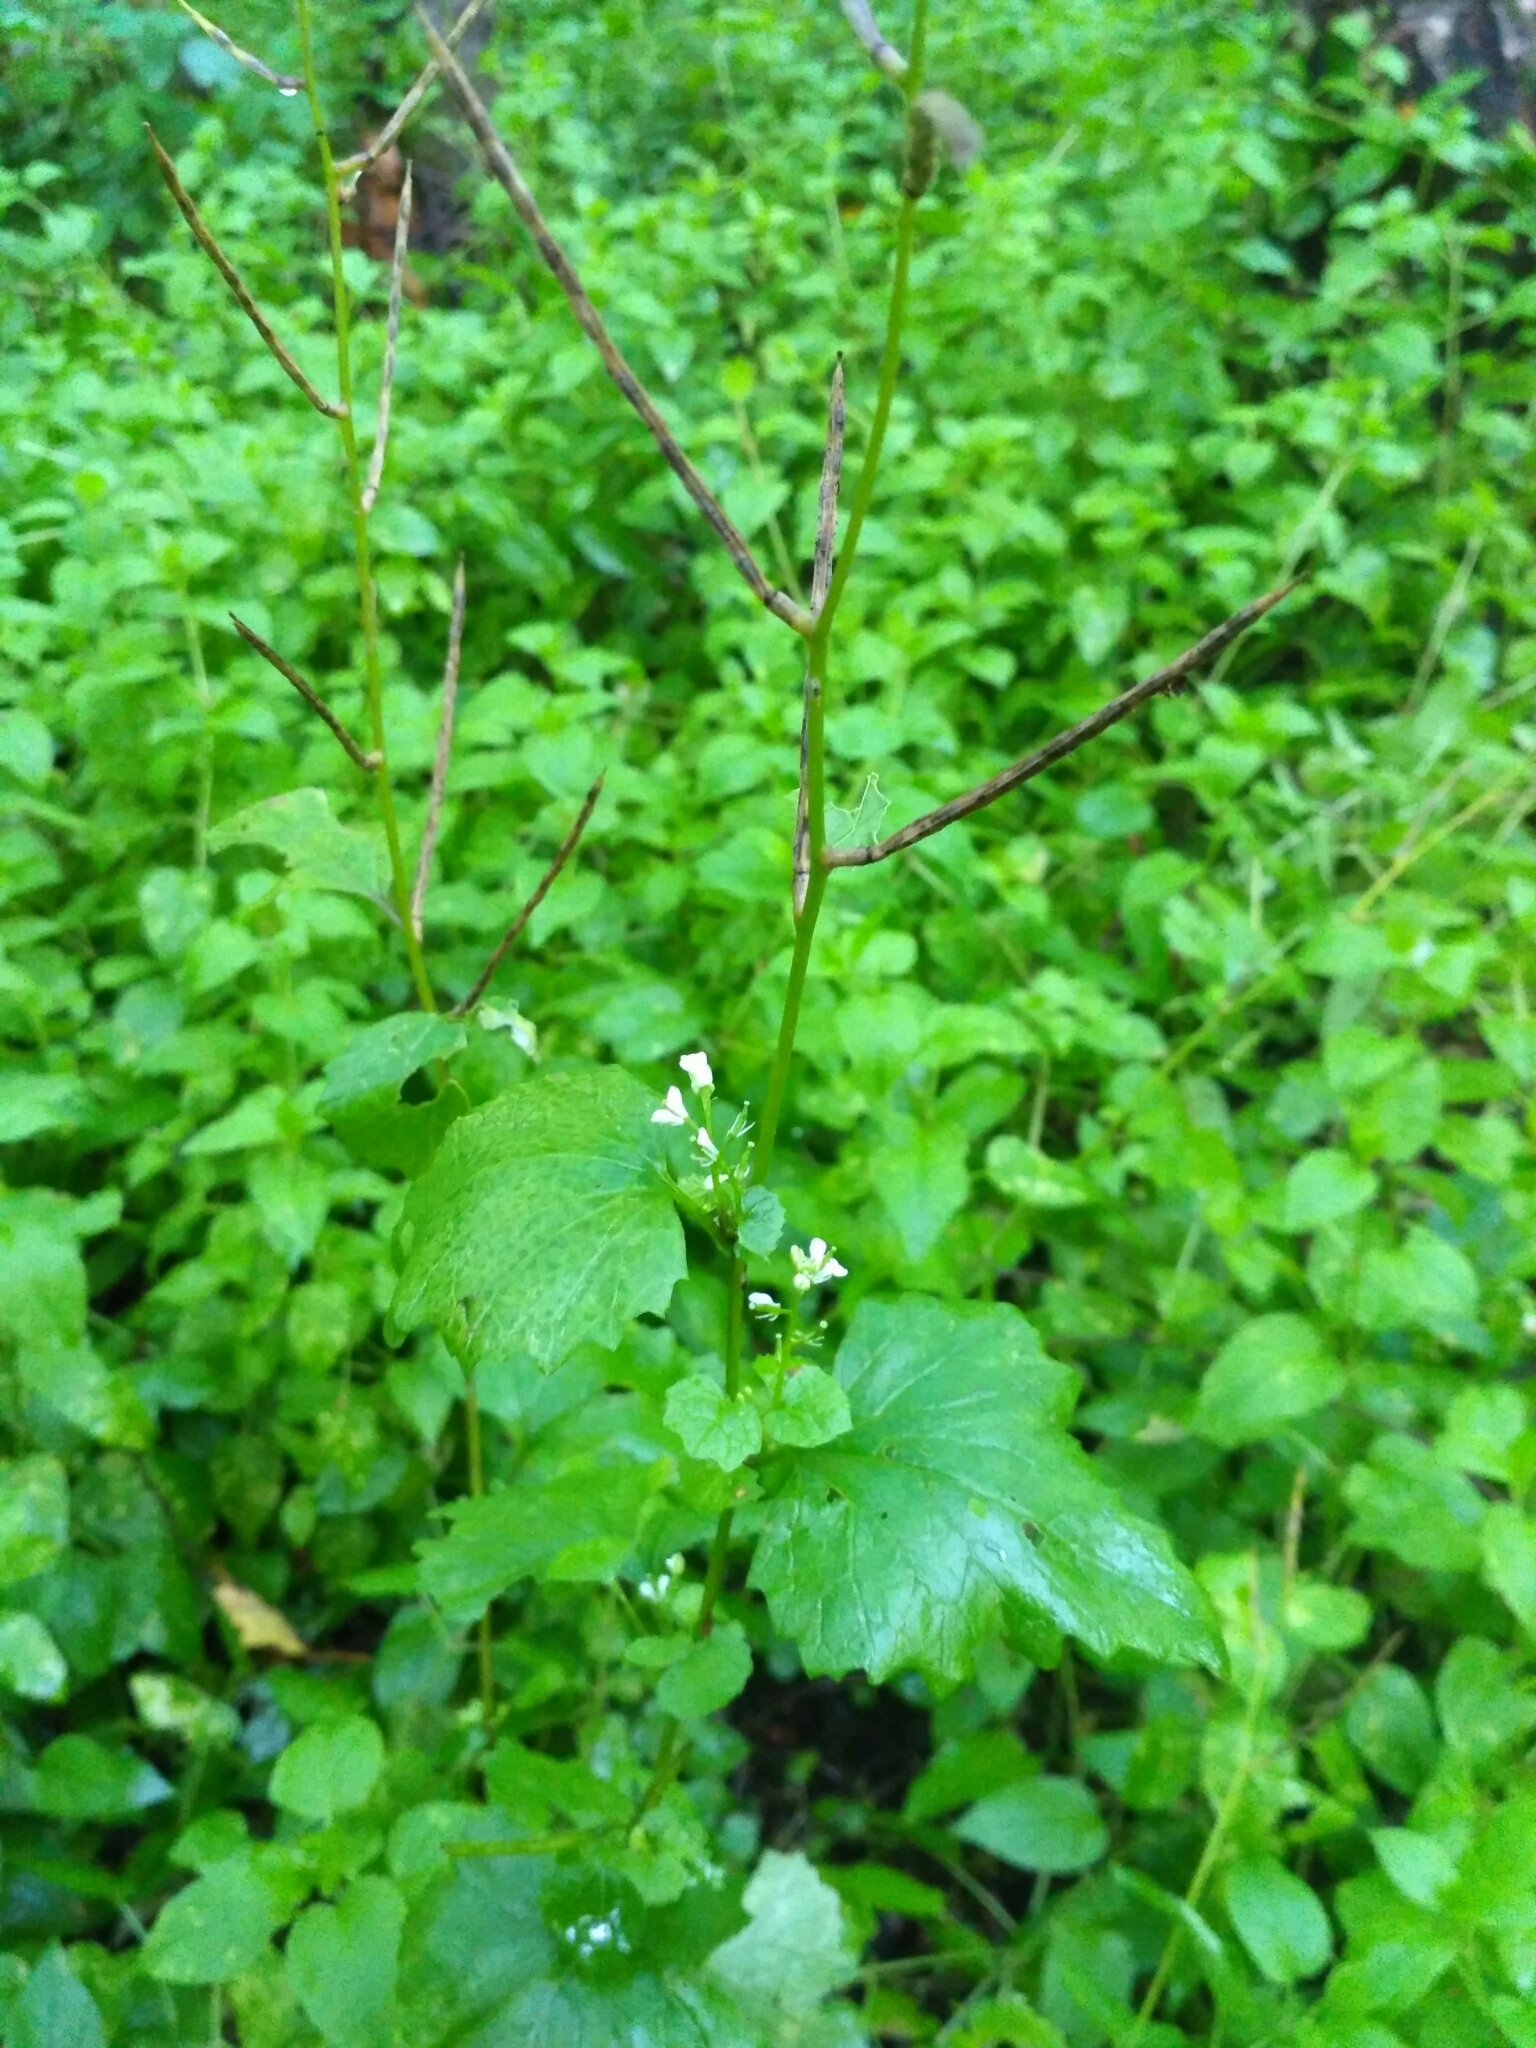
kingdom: Plantae
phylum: Tracheophyta
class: Magnoliopsida
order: Brassicales
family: Brassicaceae
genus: Alliaria
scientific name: Alliaria petiolata
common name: Garlic mustard
